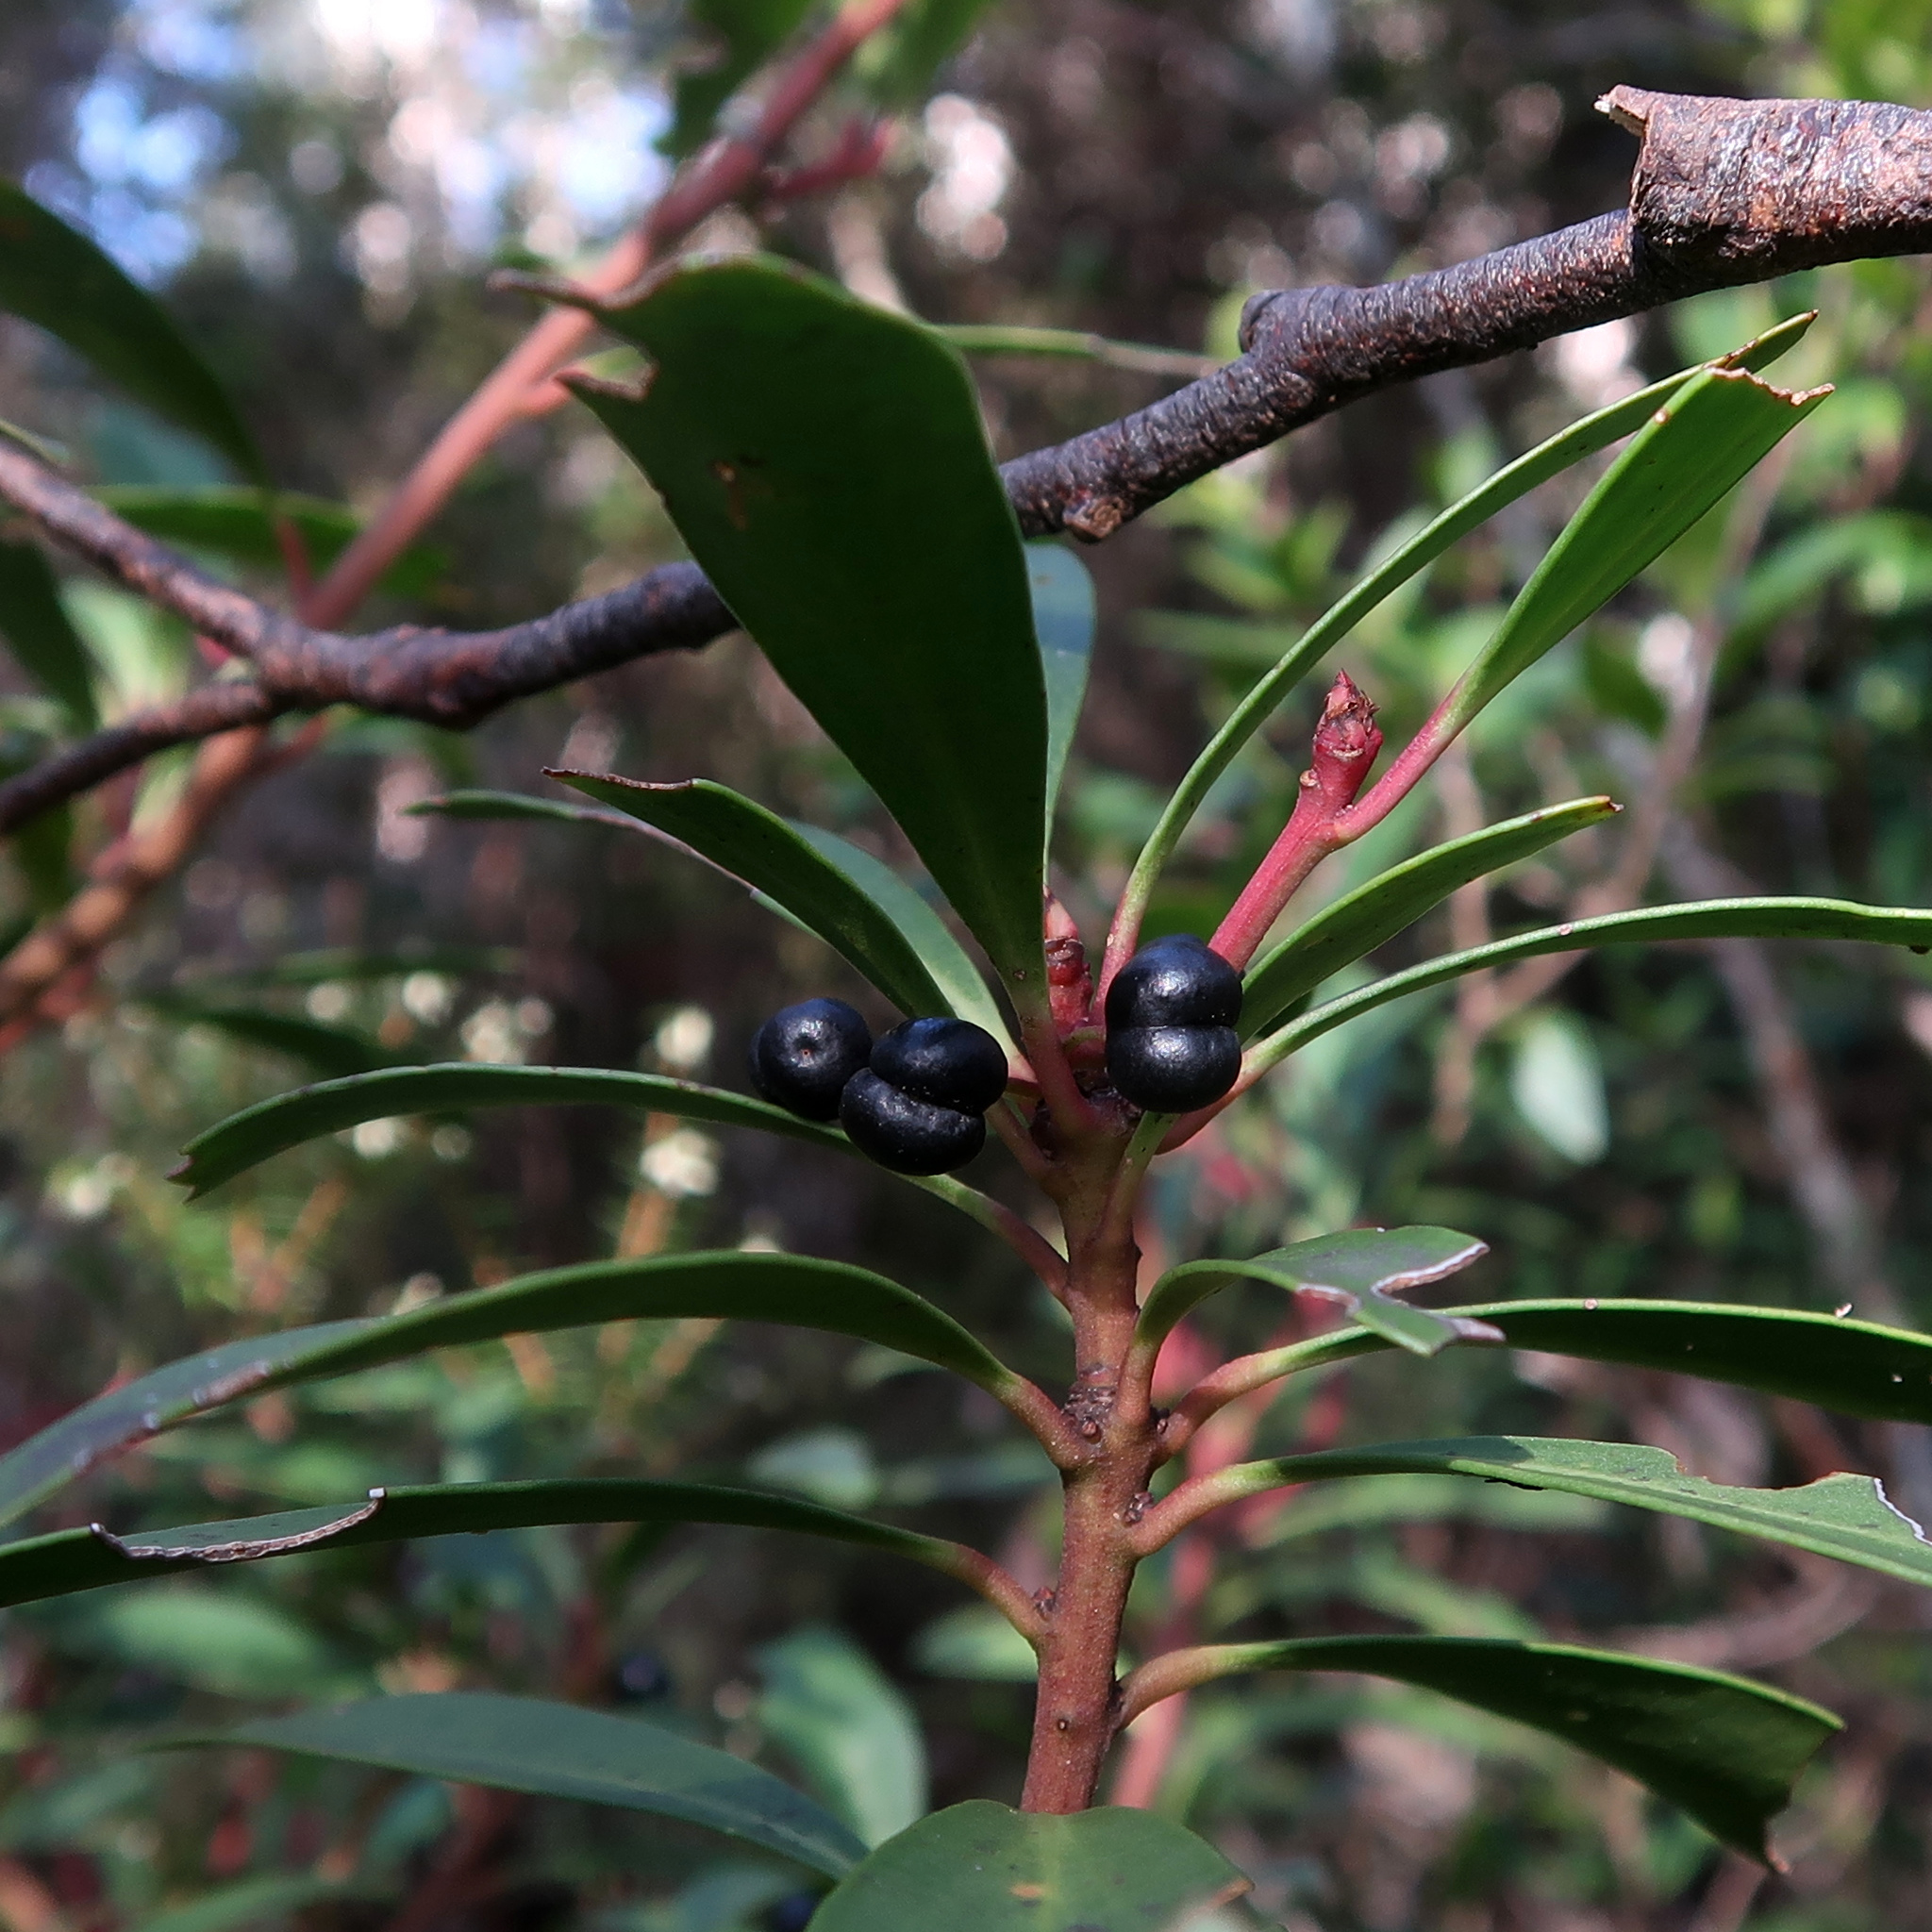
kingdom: Plantae
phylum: Tracheophyta
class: Magnoliopsida
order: Canellales
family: Winteraceae
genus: Drimys
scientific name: Drimys aromatica
